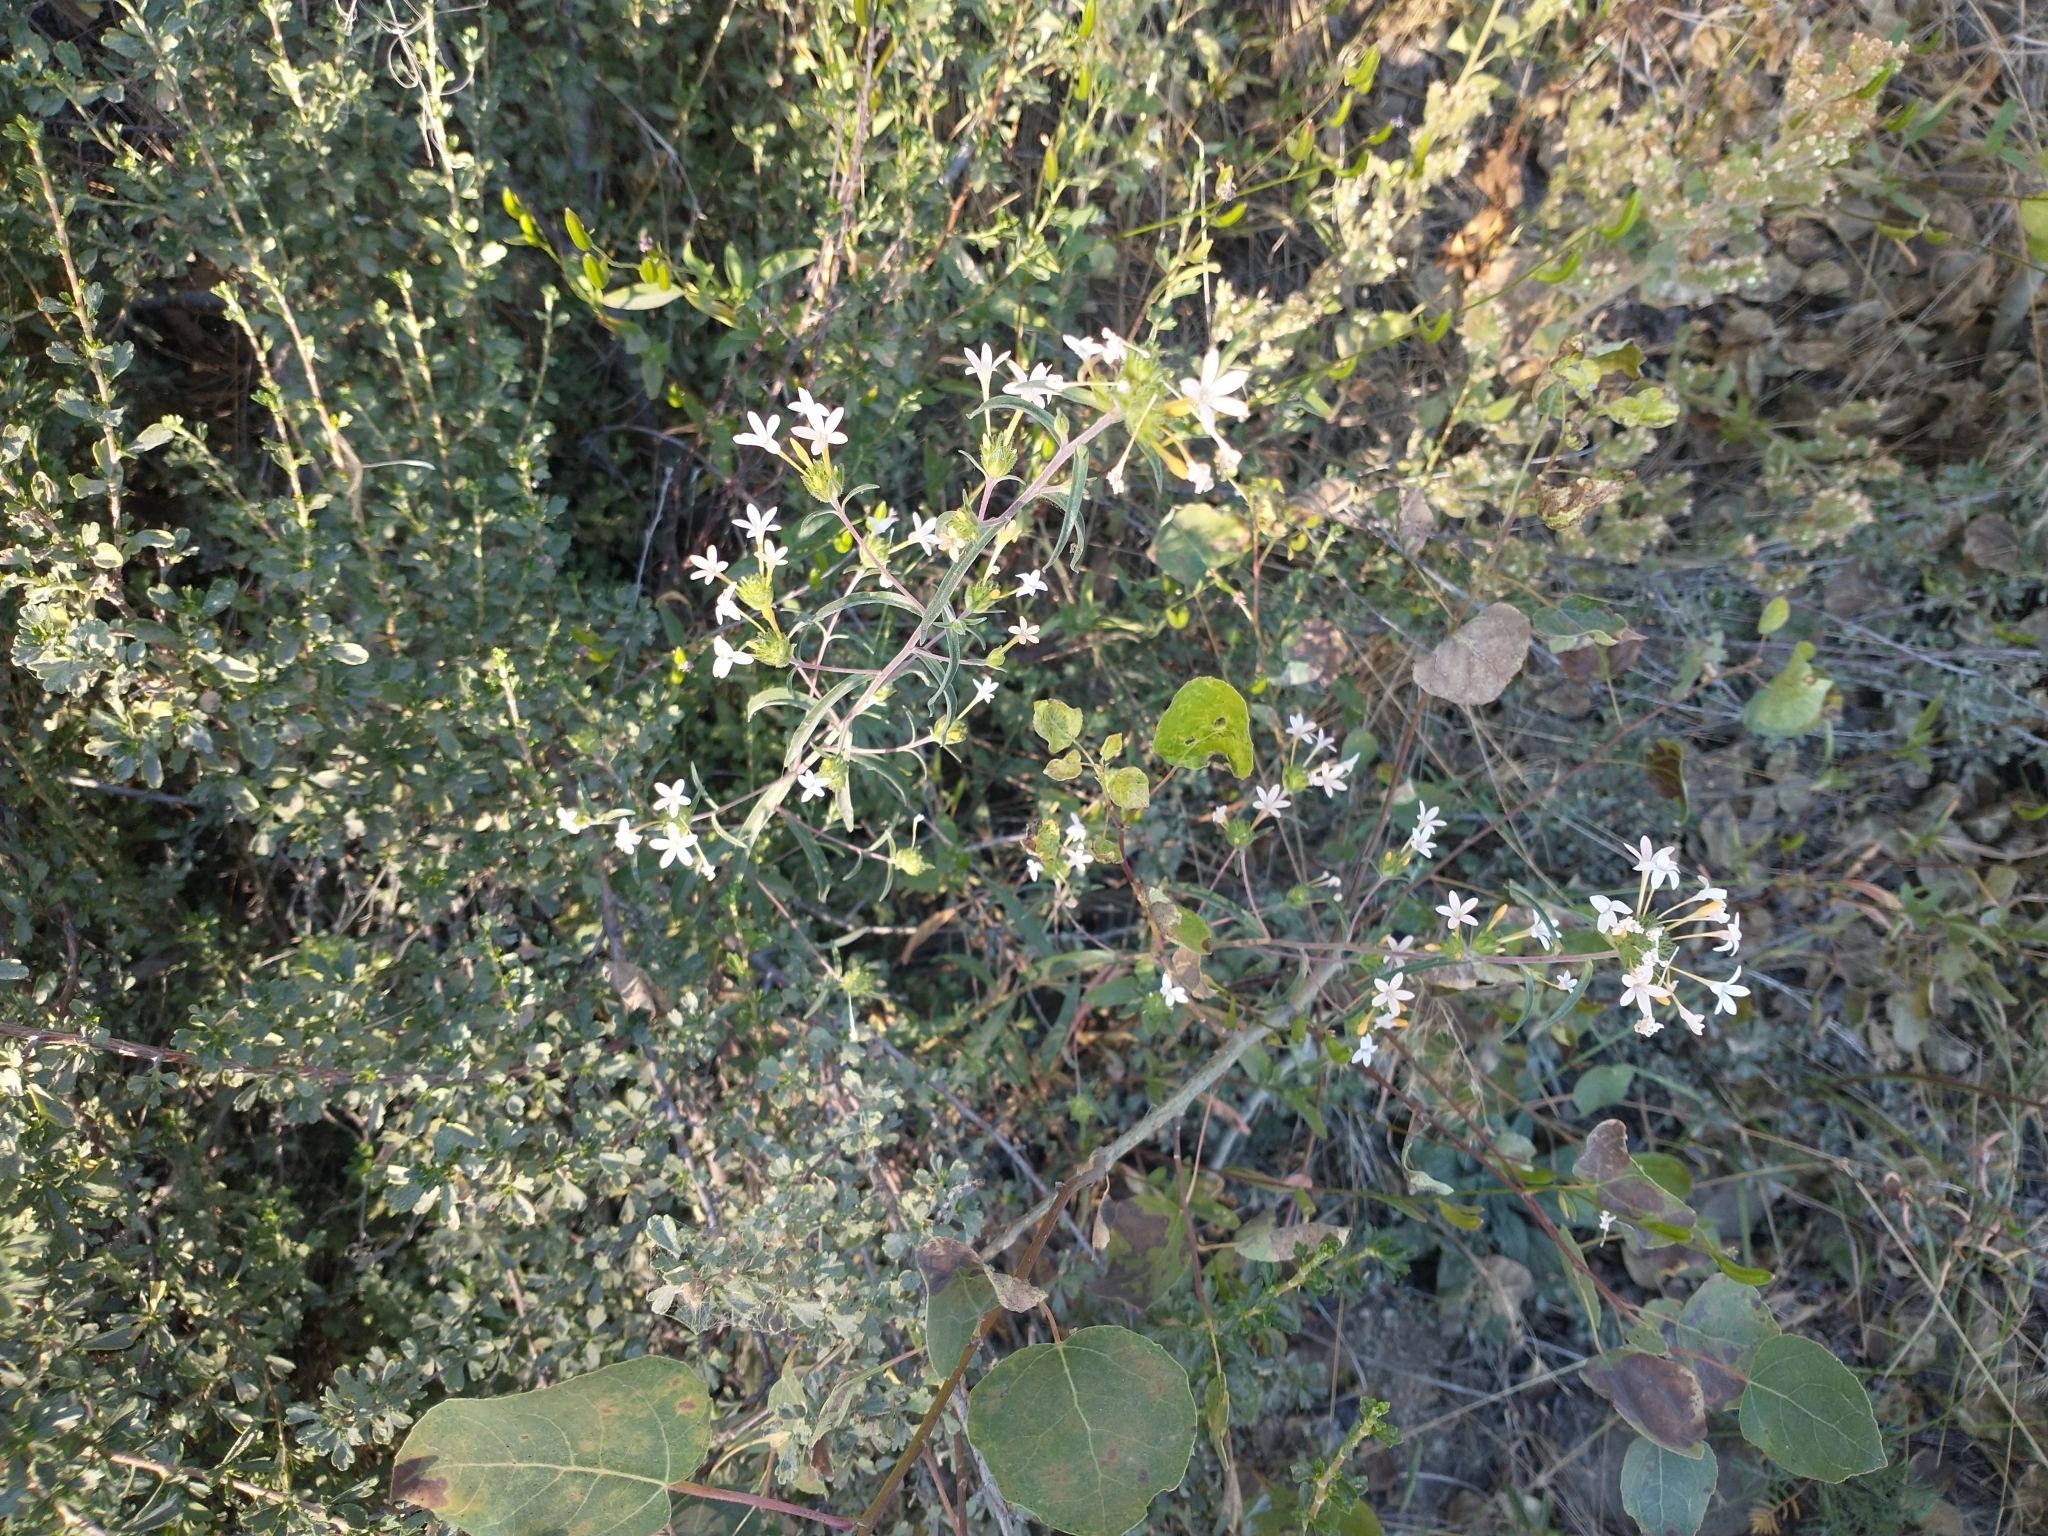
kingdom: Plantae
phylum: Tracheophyta
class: Magnoliopsida
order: Ericales
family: Polemoniaceae
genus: Collomia
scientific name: Collomia grandiflora
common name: California strawflower
